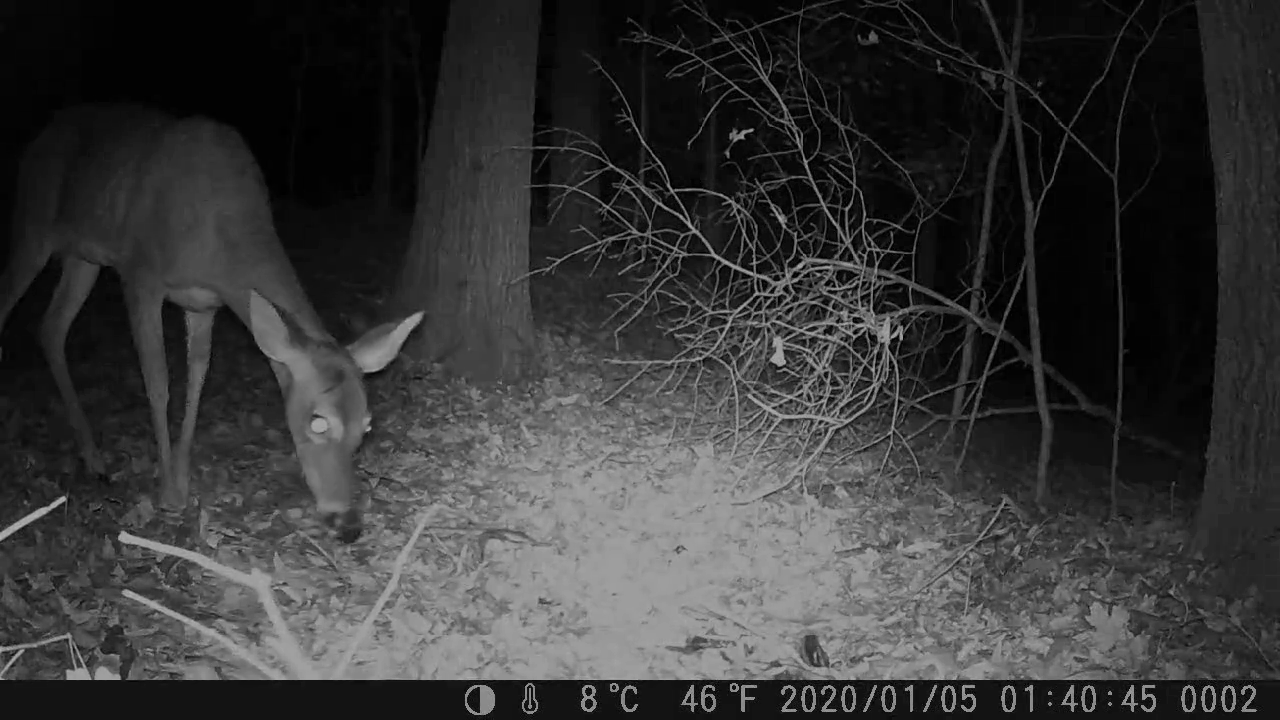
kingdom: Animalia
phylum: Chordata
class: Mammalia
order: Artiodactyla
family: Cervidae
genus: Odocoileus
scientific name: Odocoileus virginianus
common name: White-tailed deer
